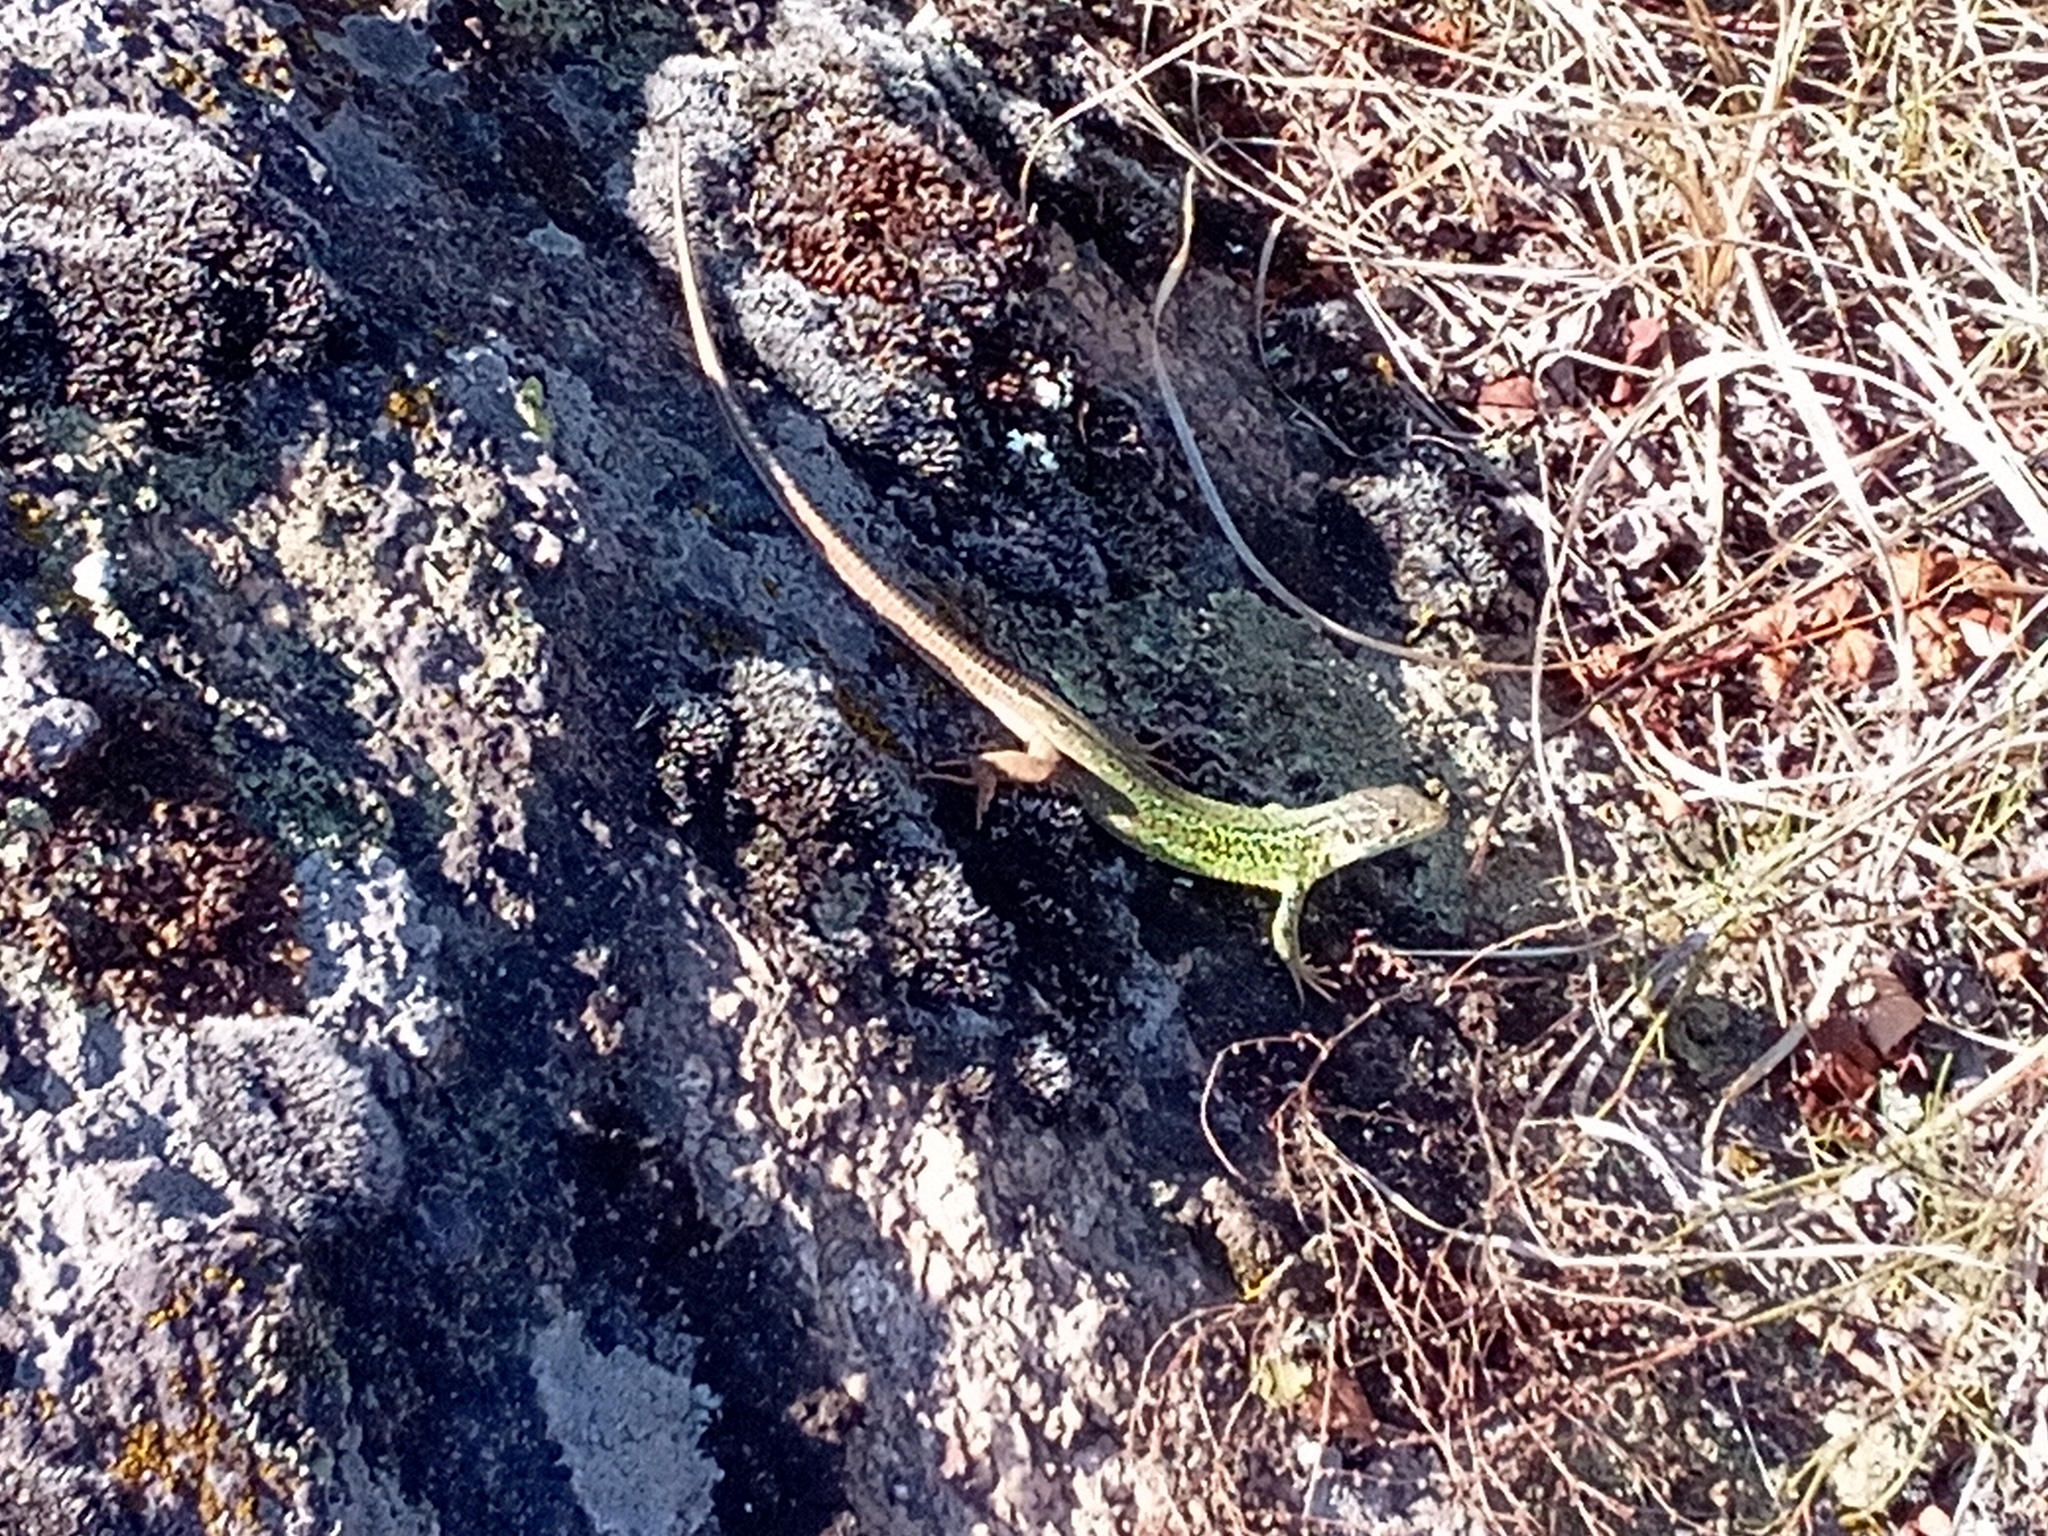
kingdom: Animalia
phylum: Chordata
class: Squamata
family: Lacertidae
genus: Lacerta
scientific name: Lacerta viridis
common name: European green lizard
